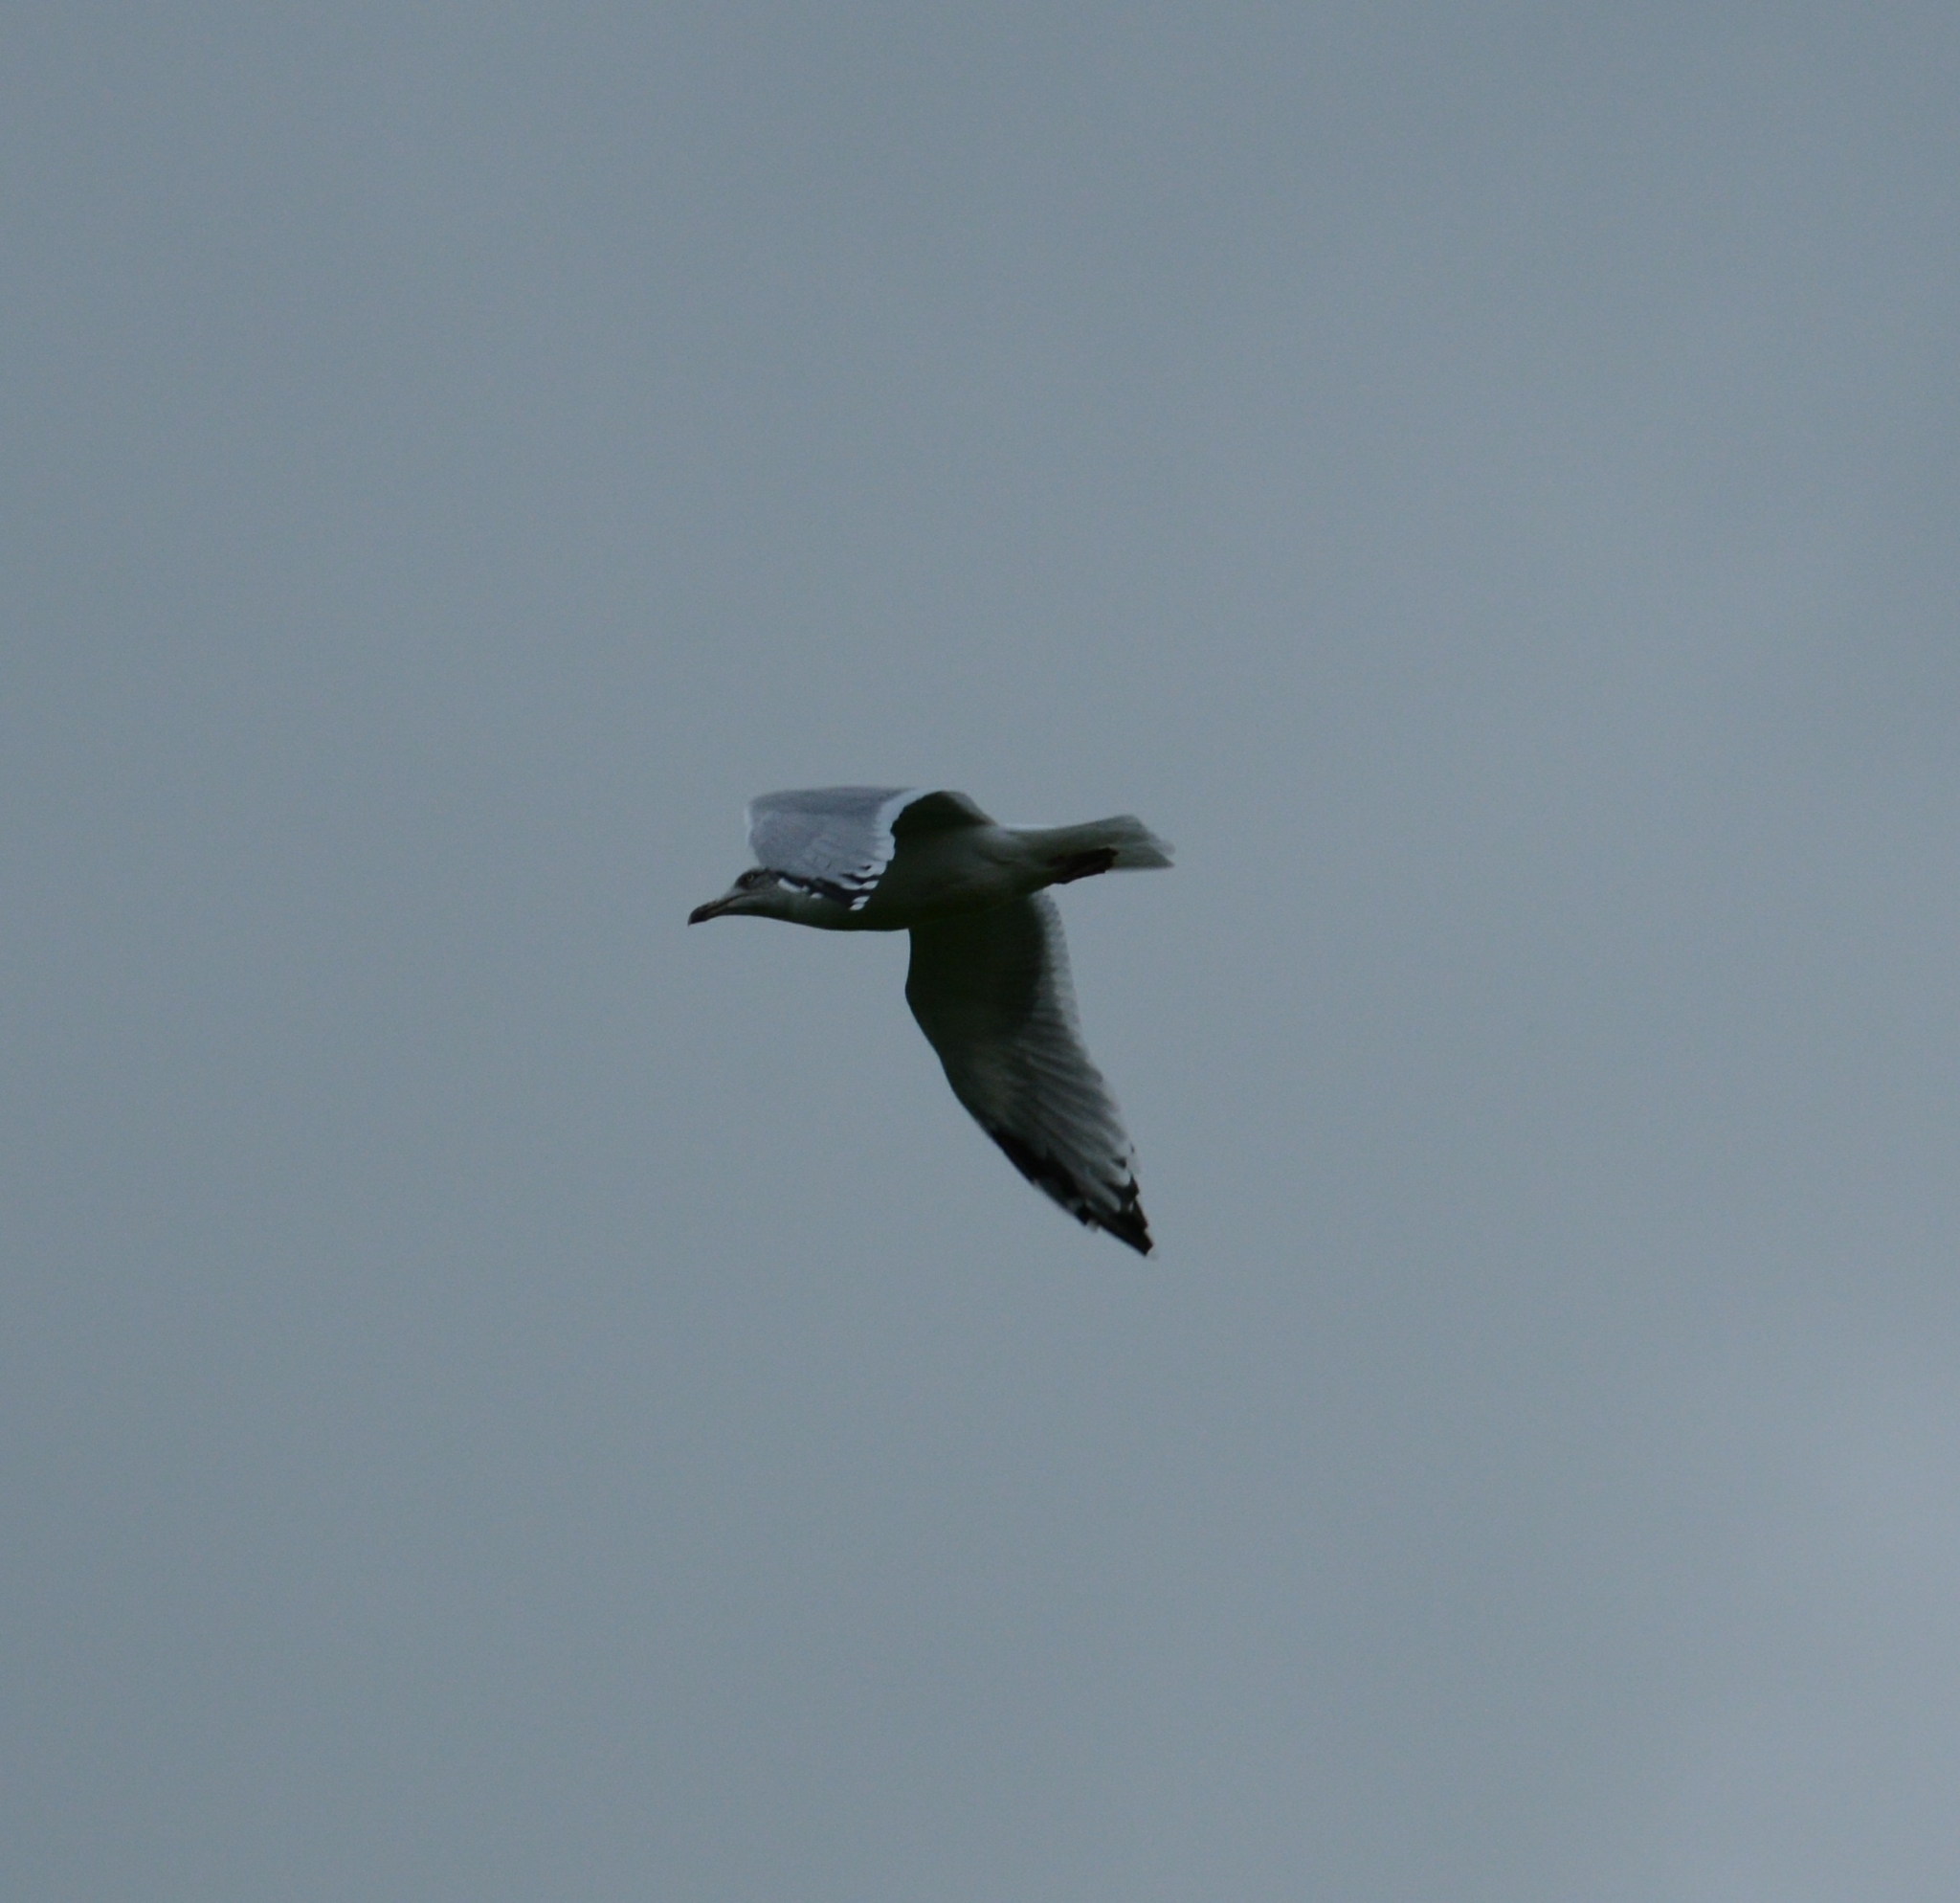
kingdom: Animalia
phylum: Chordata
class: Aves
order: Charadriiformes
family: Laridae
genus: Larus
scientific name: Larus argentatus
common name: Herring gull
